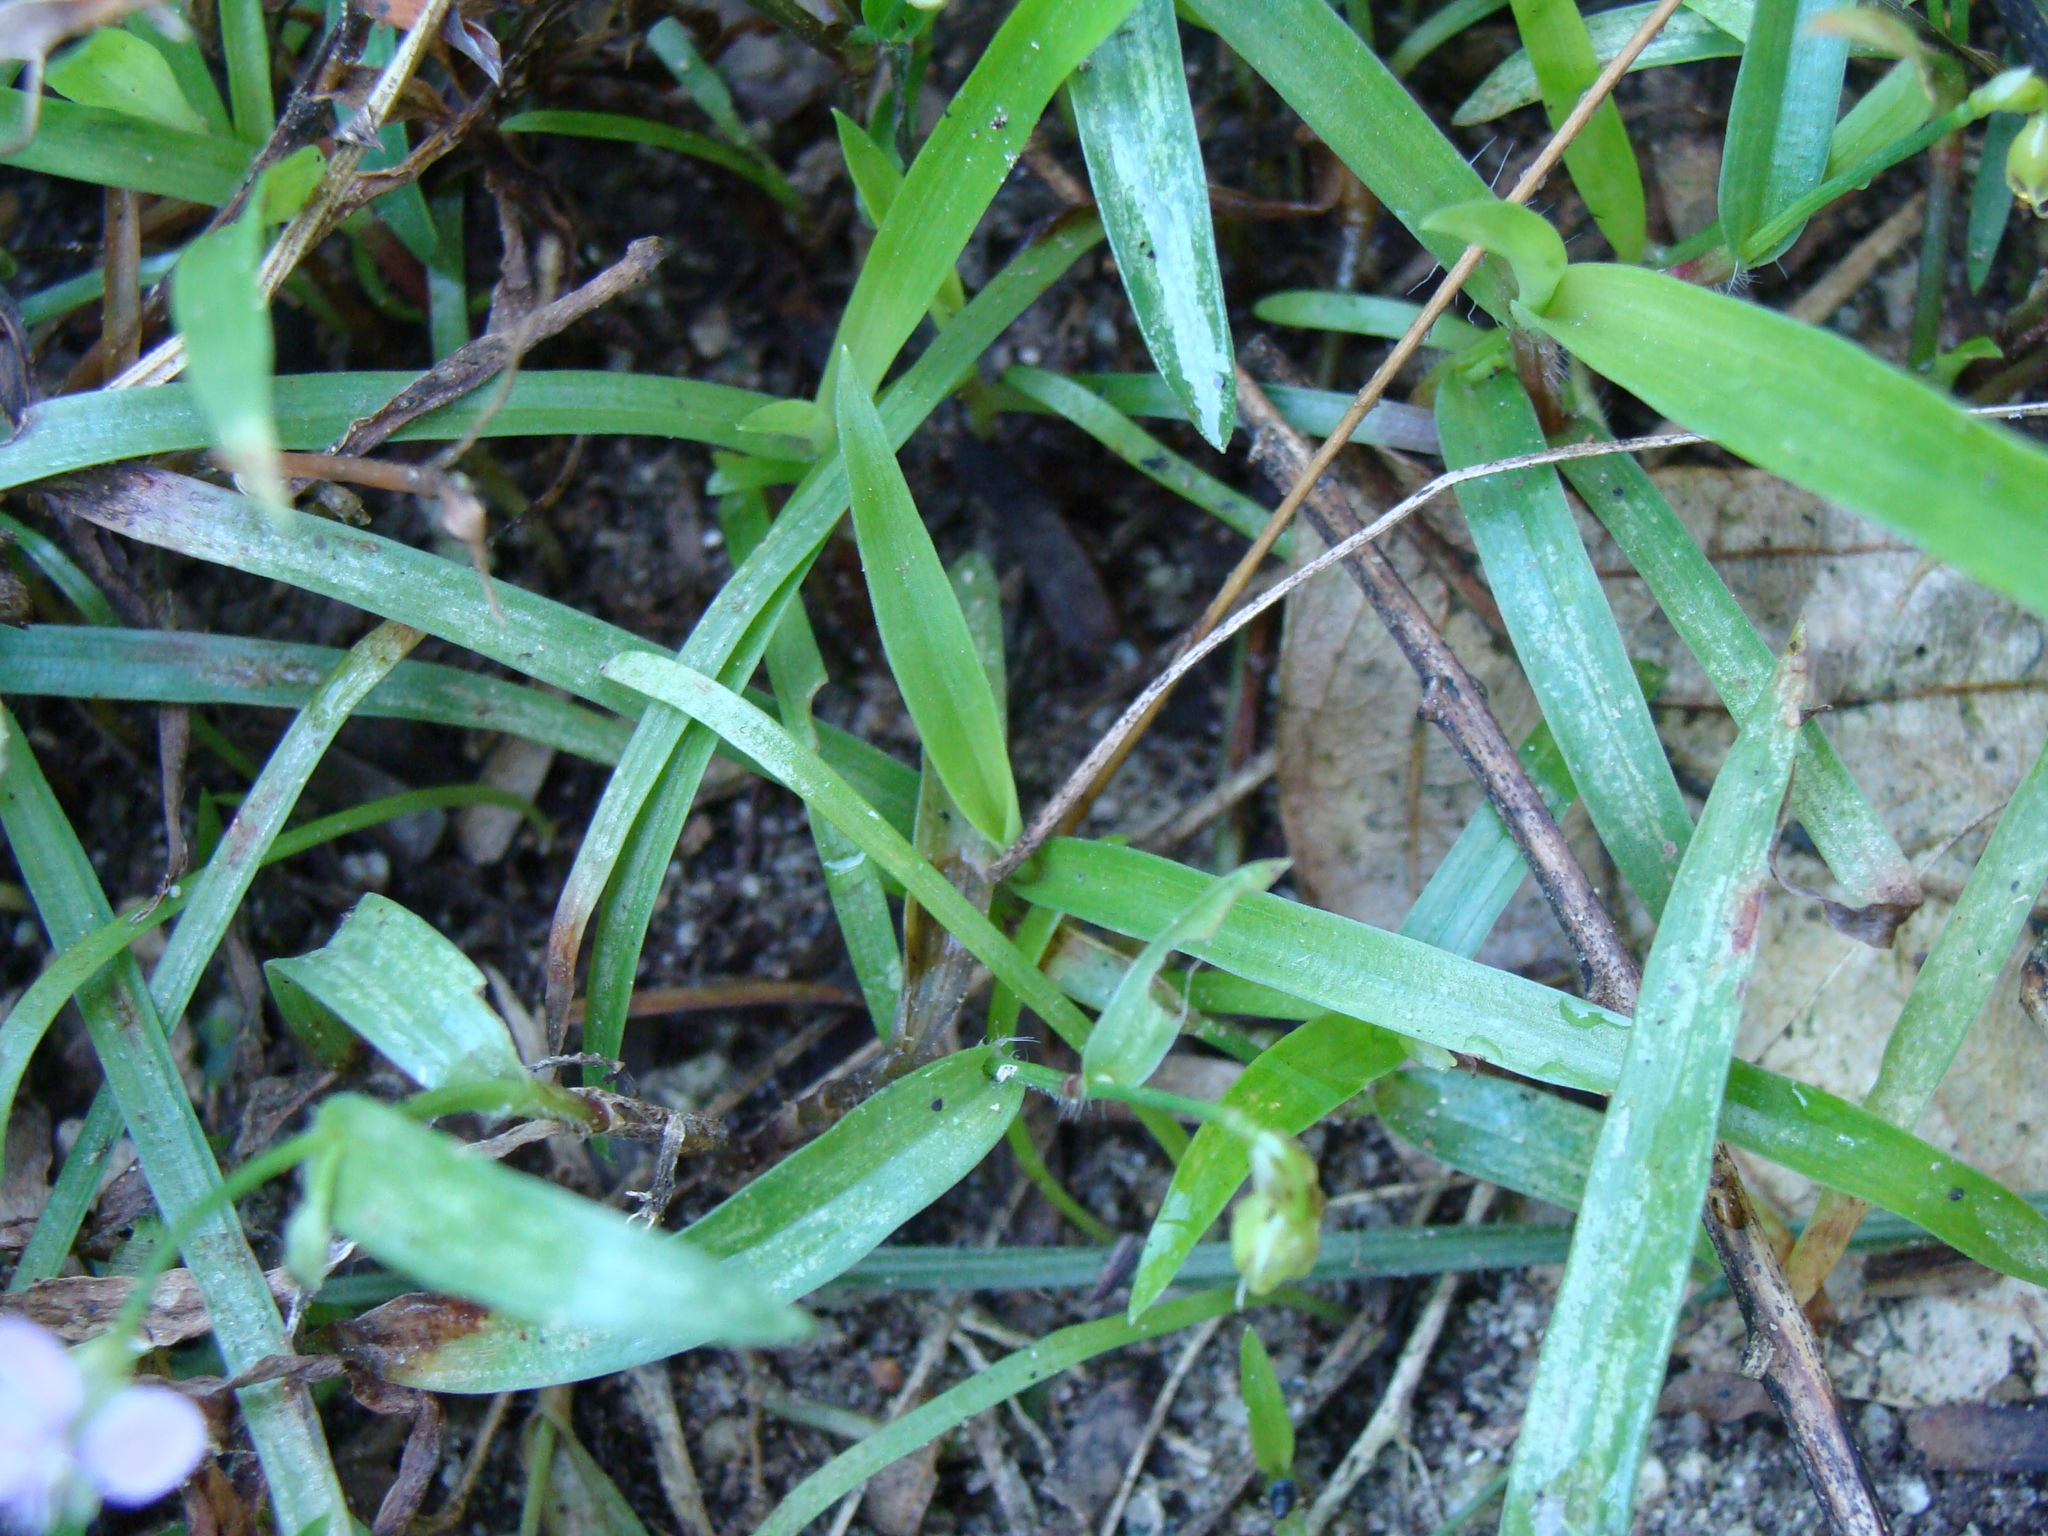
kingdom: Plantae
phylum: Tracheophyta
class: Liliopsida
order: Commelinales
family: Commelinaceae
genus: Murdannia
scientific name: Murdannia nudiflora
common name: Nakedstem dewflower
